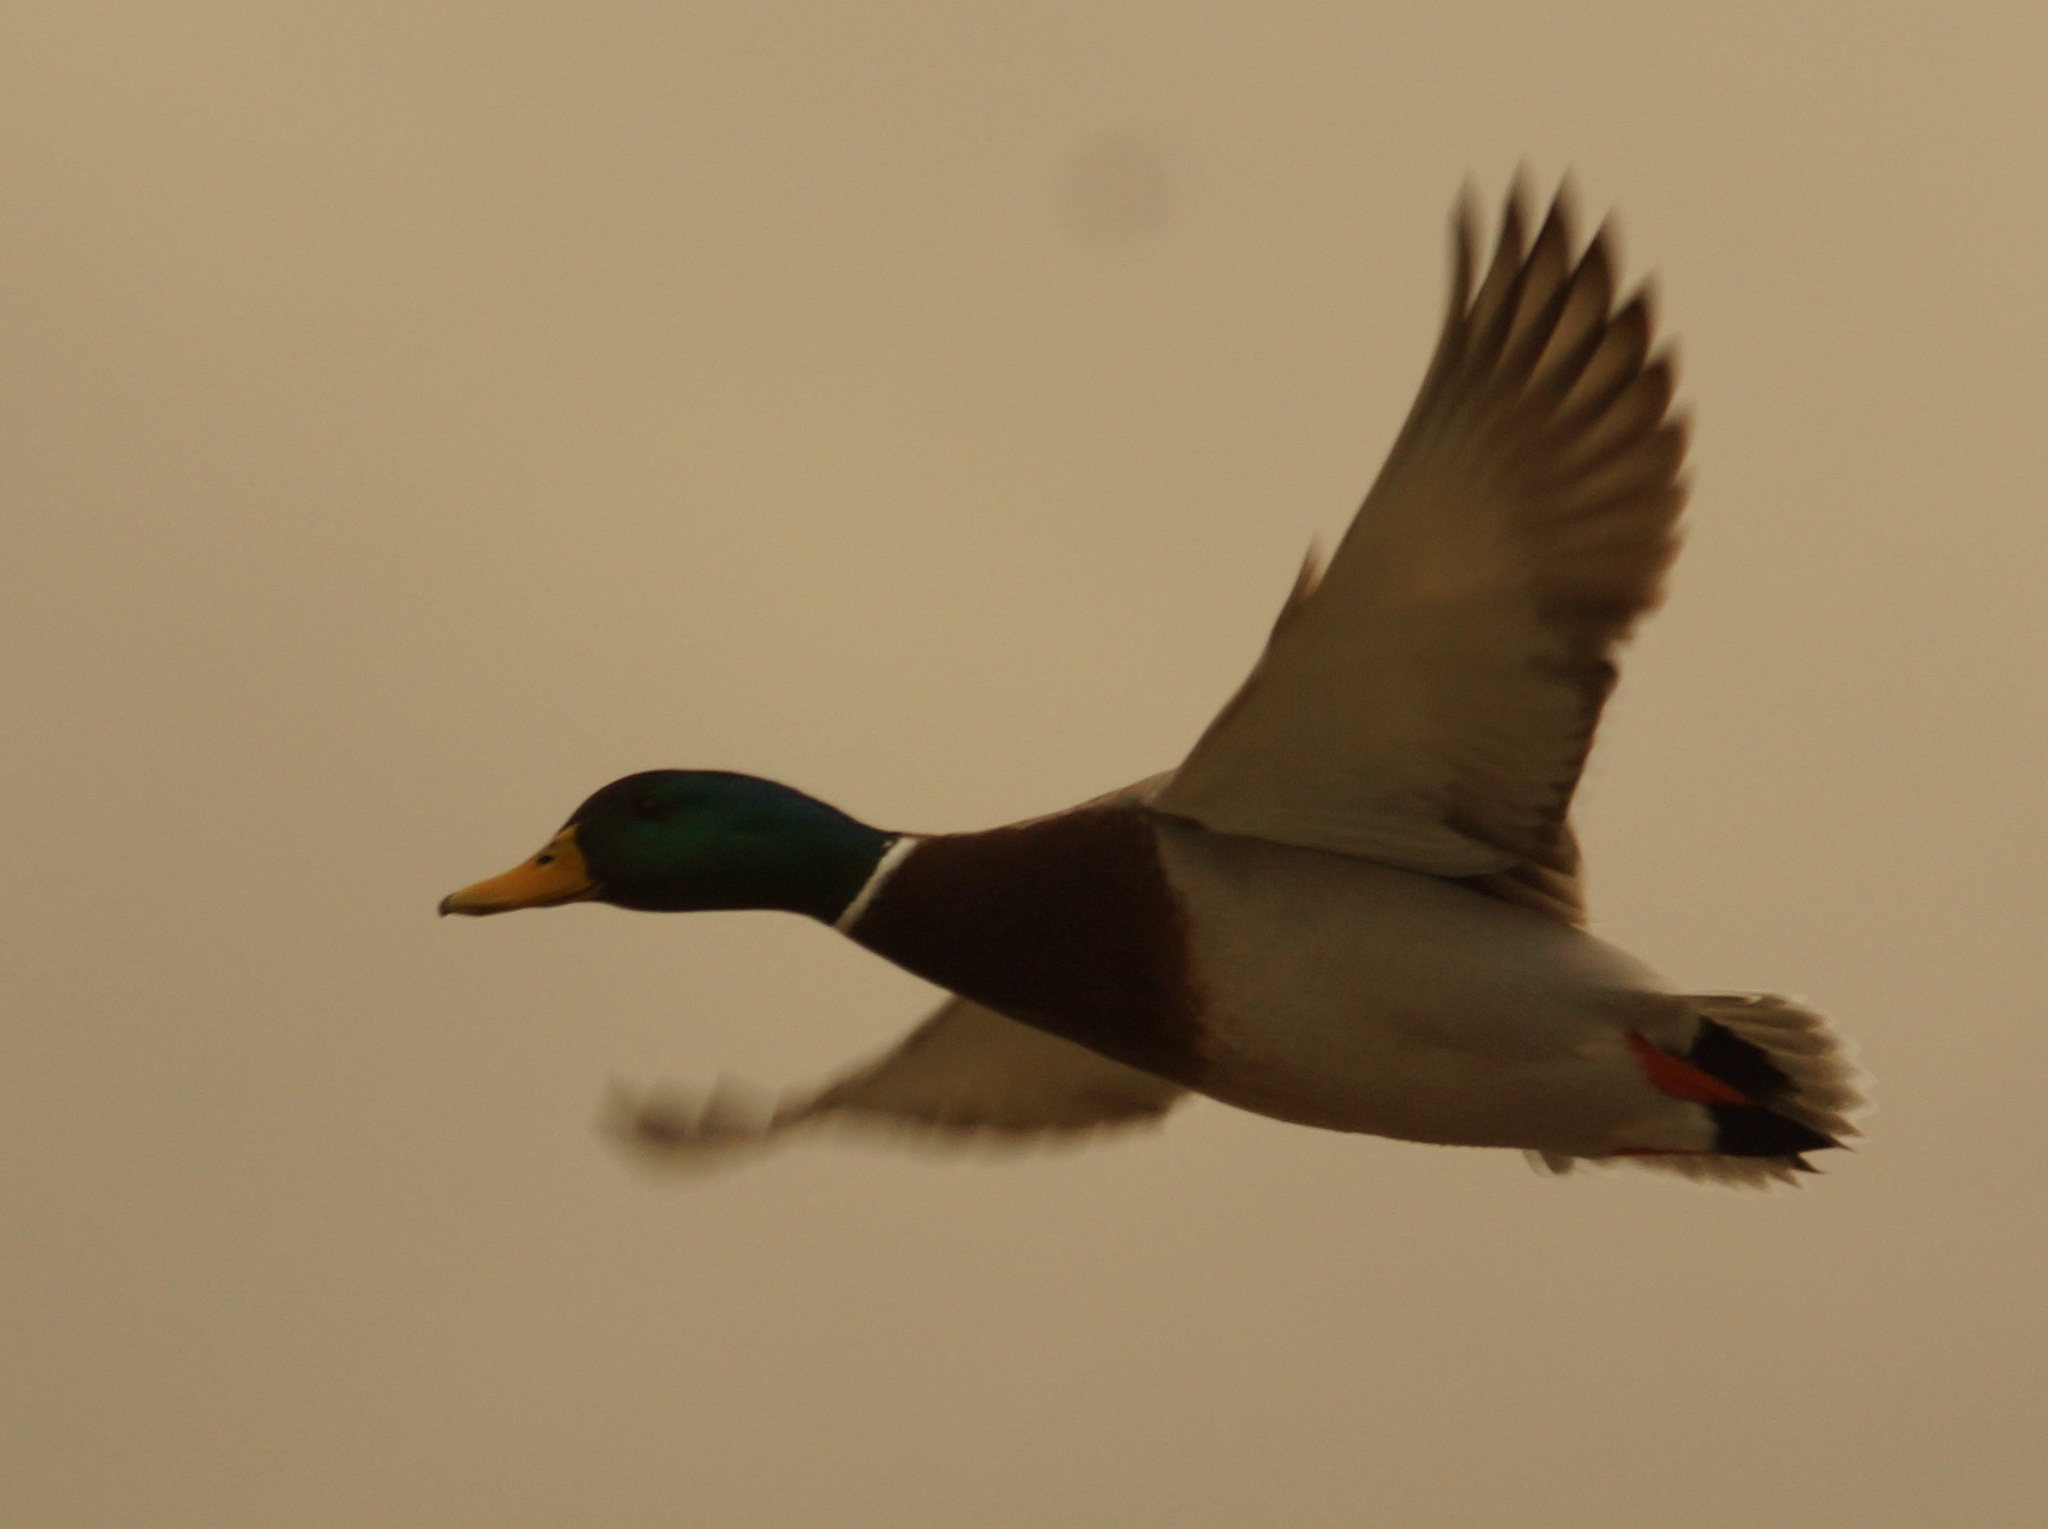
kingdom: Animalia
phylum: Chordata
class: Aves
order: Anseriformes
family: Anatidae
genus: Anas
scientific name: Anas platyrhynchos
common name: Mallard
